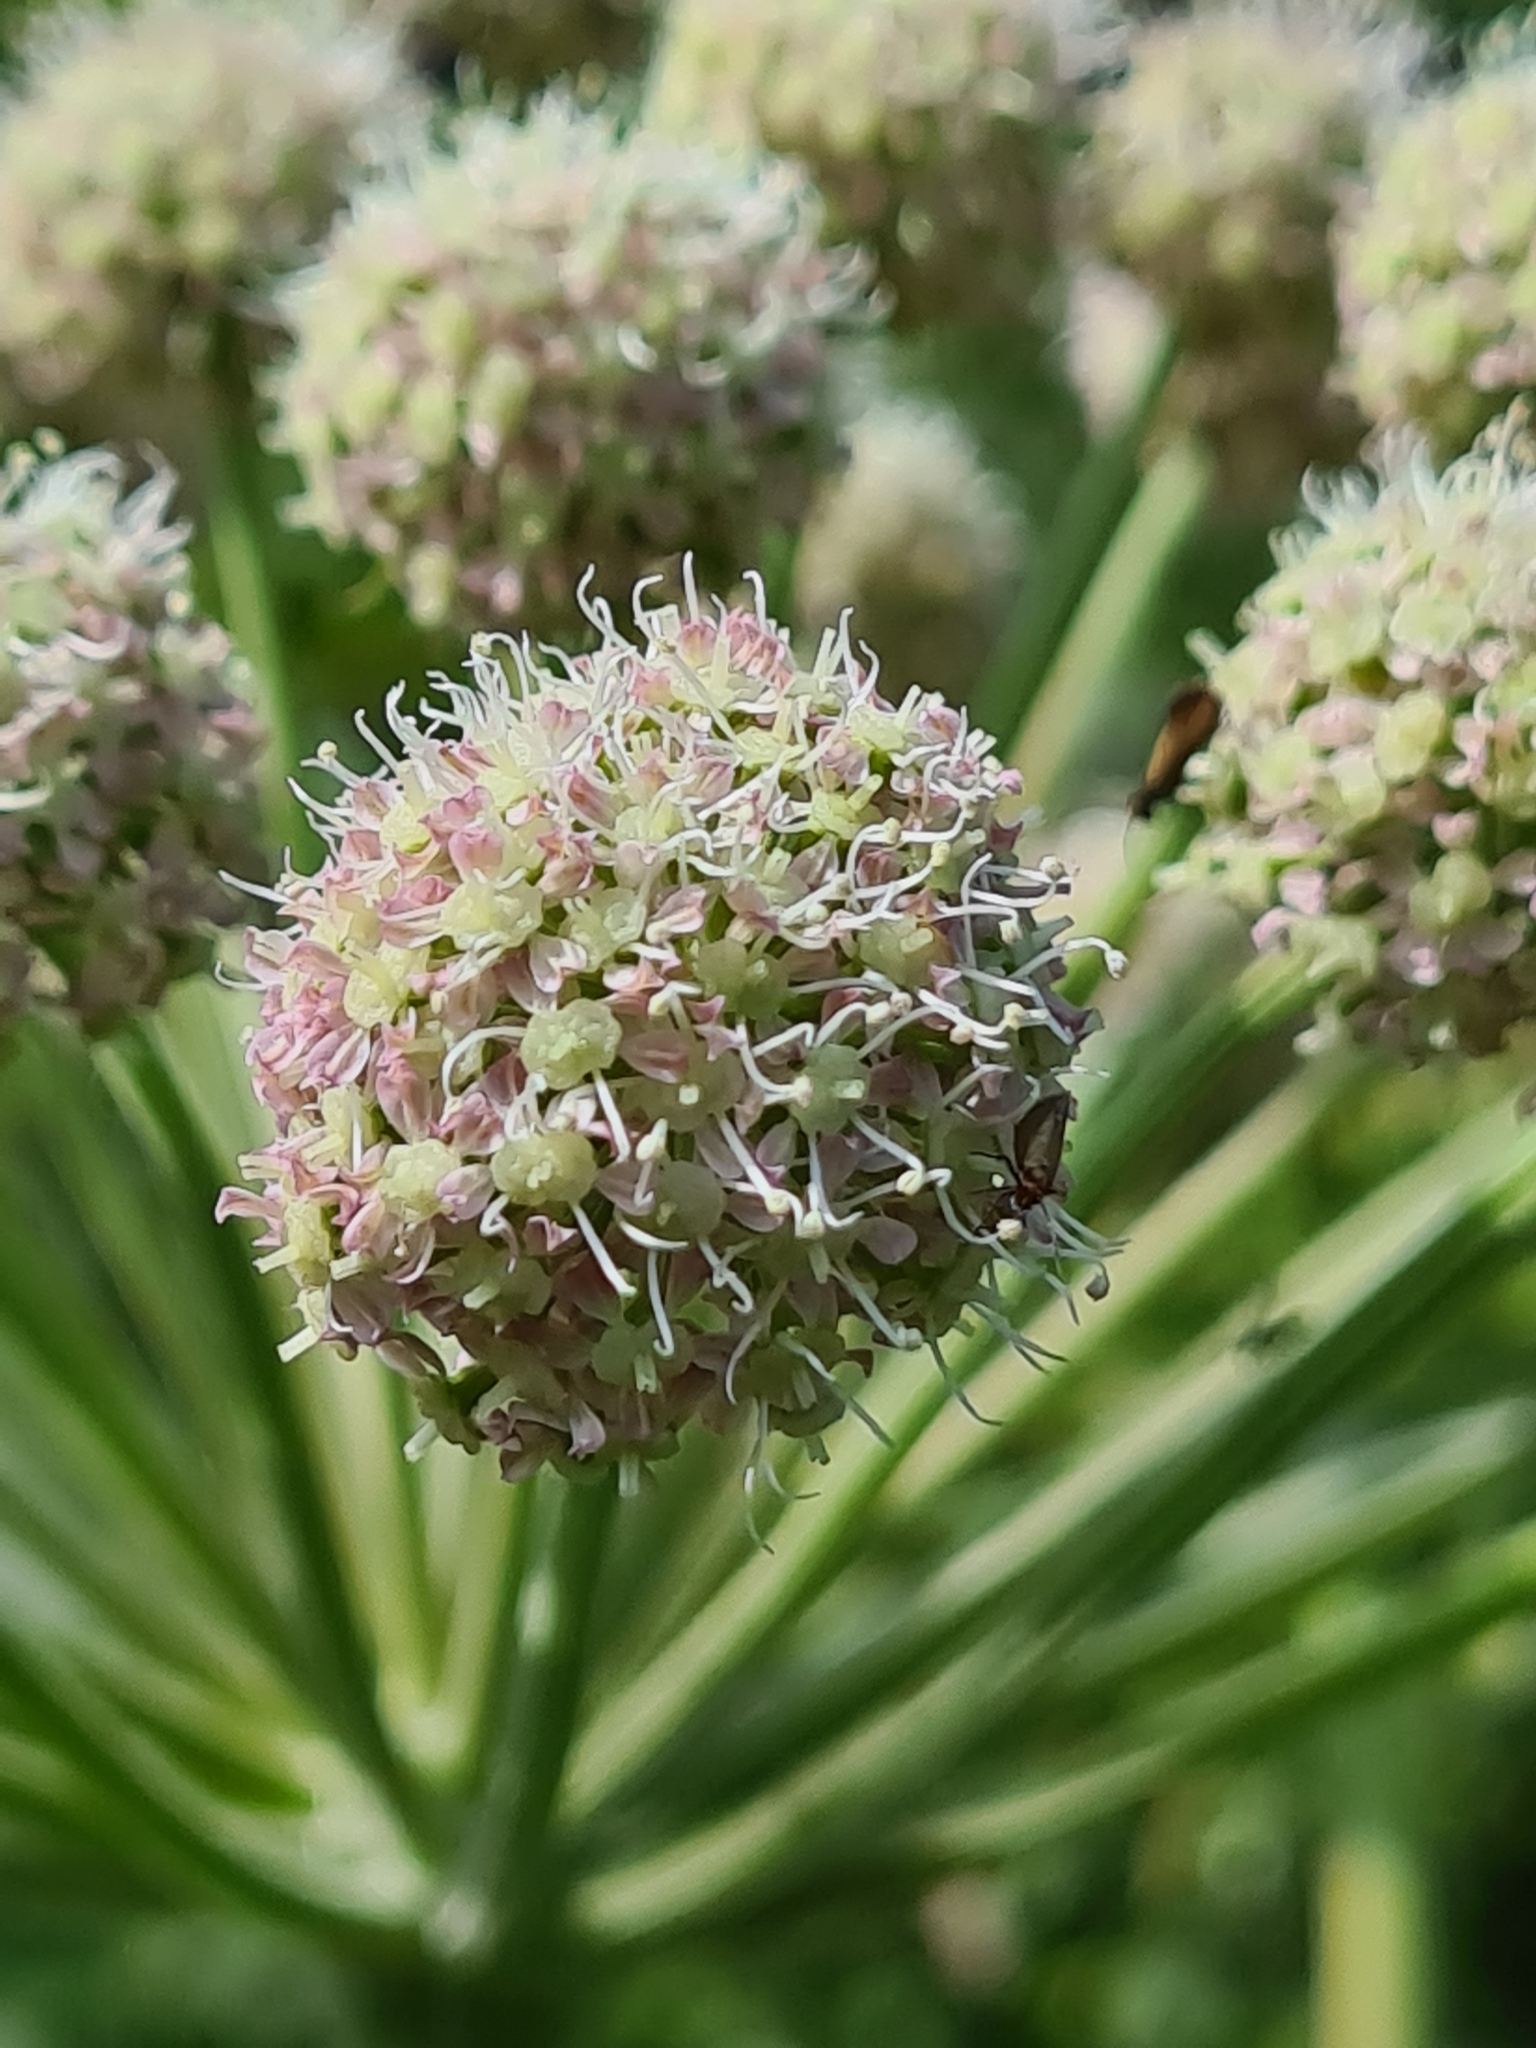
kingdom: Plantae
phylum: Tracheophyta
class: Magnoliopsida
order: Apiales
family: Apiaceae
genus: Angelica
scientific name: Angelica sylvestris
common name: Wild angelica
